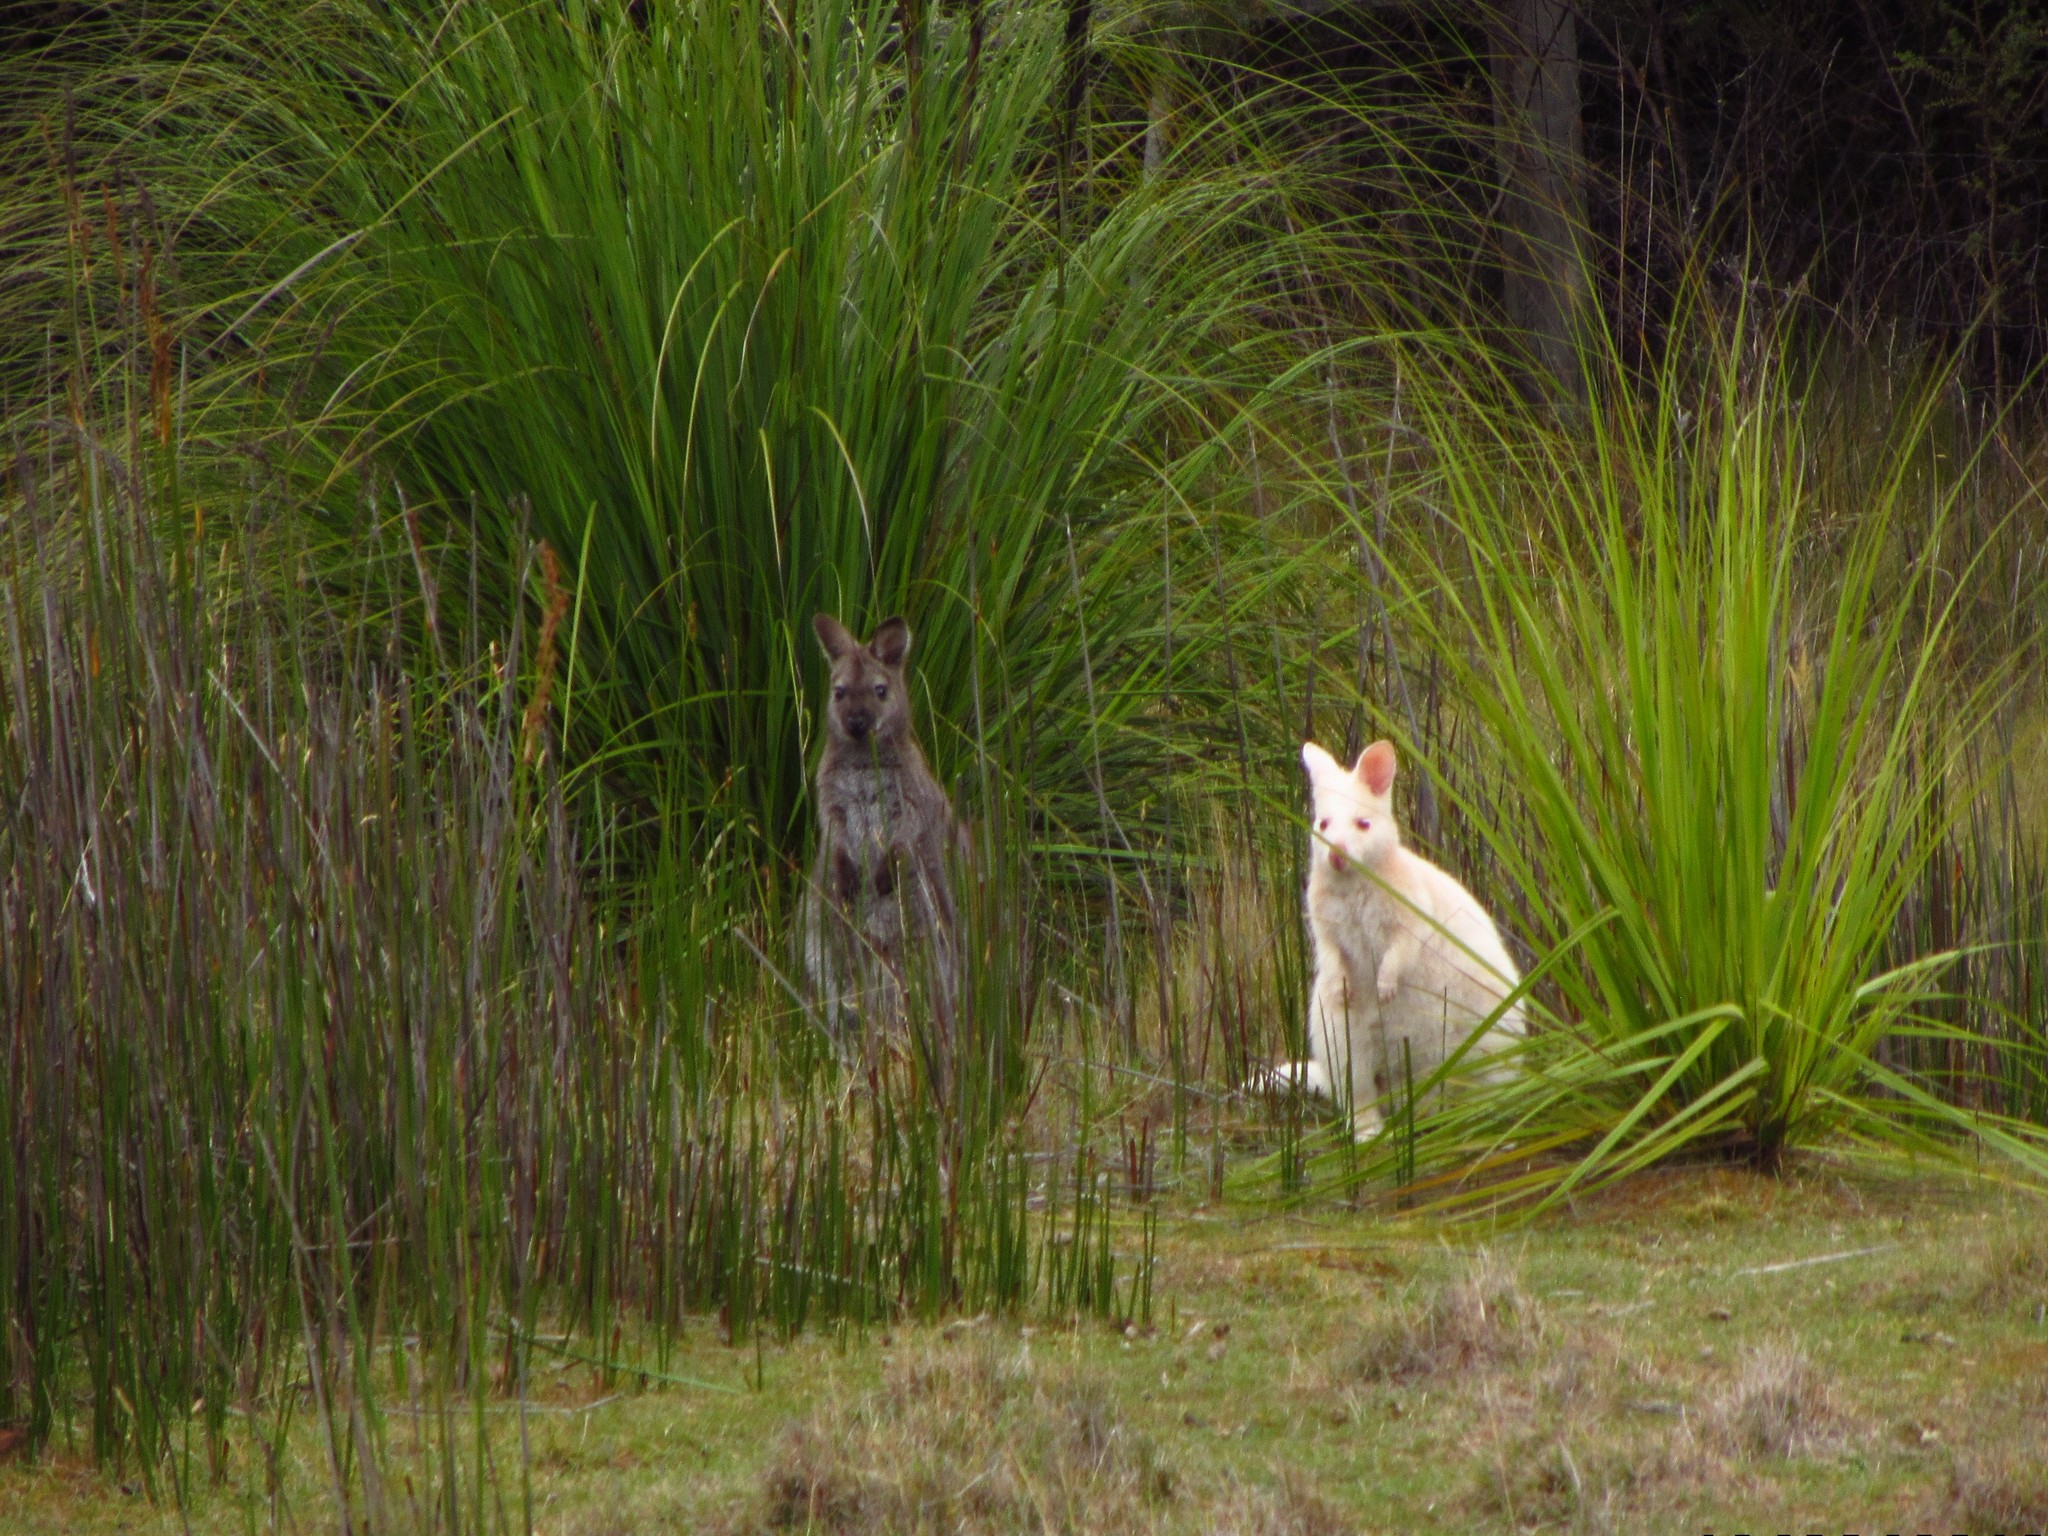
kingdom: Animalia
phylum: Chordata
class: Mammalia
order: Diprotodontia
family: Macropodidae
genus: Notamacropus
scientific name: Notamacropus rufogriseus
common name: Red-necked wallaby
